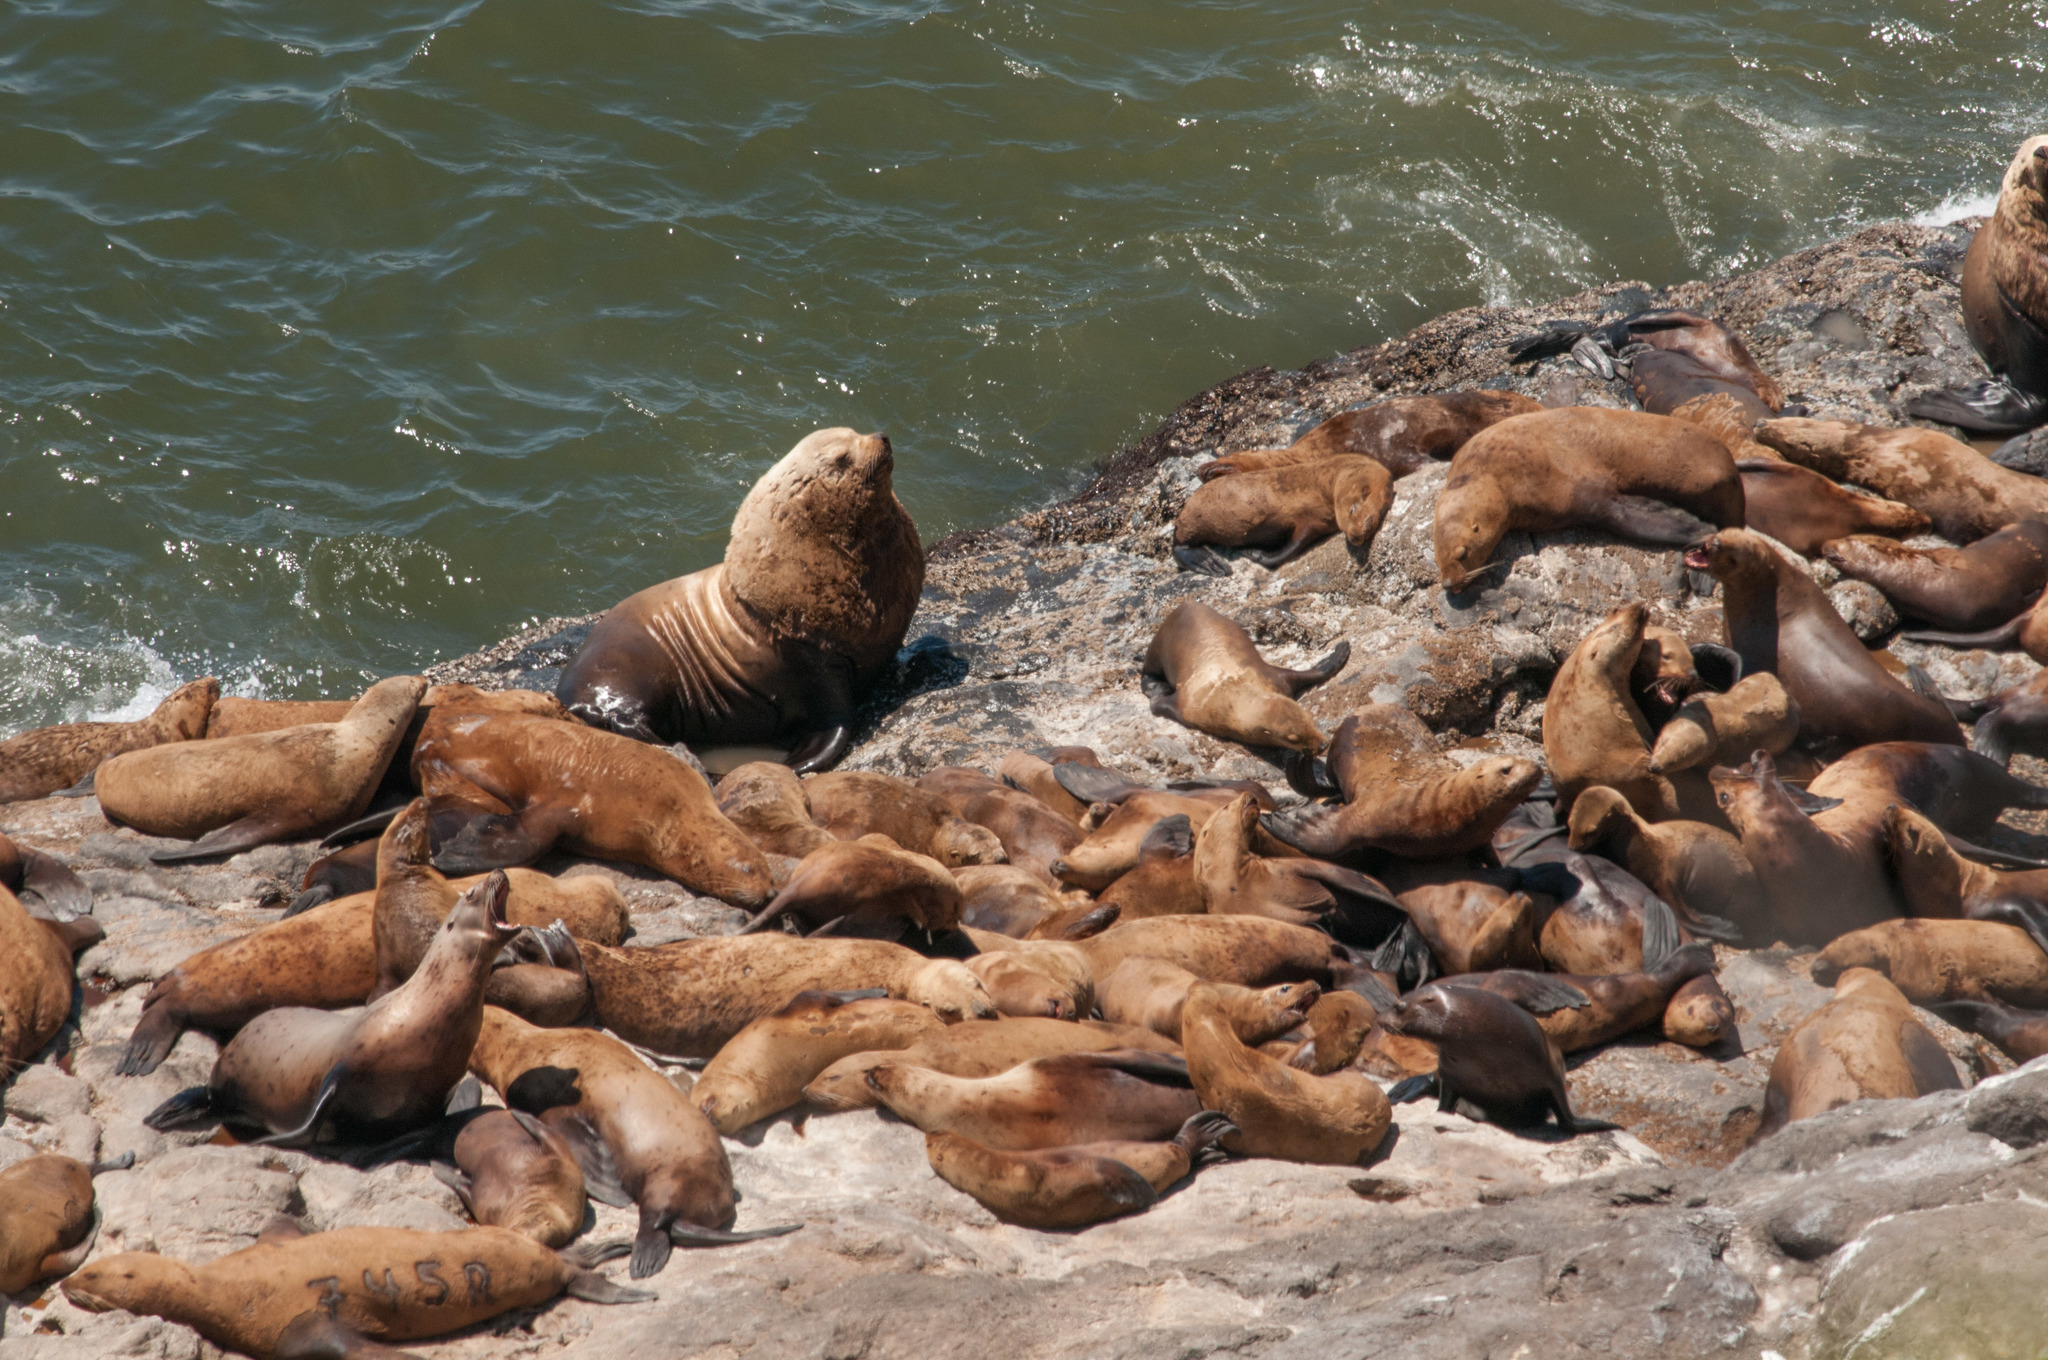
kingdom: Animalia
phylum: Chordata
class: Mammalia
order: Carnivora
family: Otariidae
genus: Eumetopias
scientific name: Eumetopias jubatus
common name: Steller sea lion
